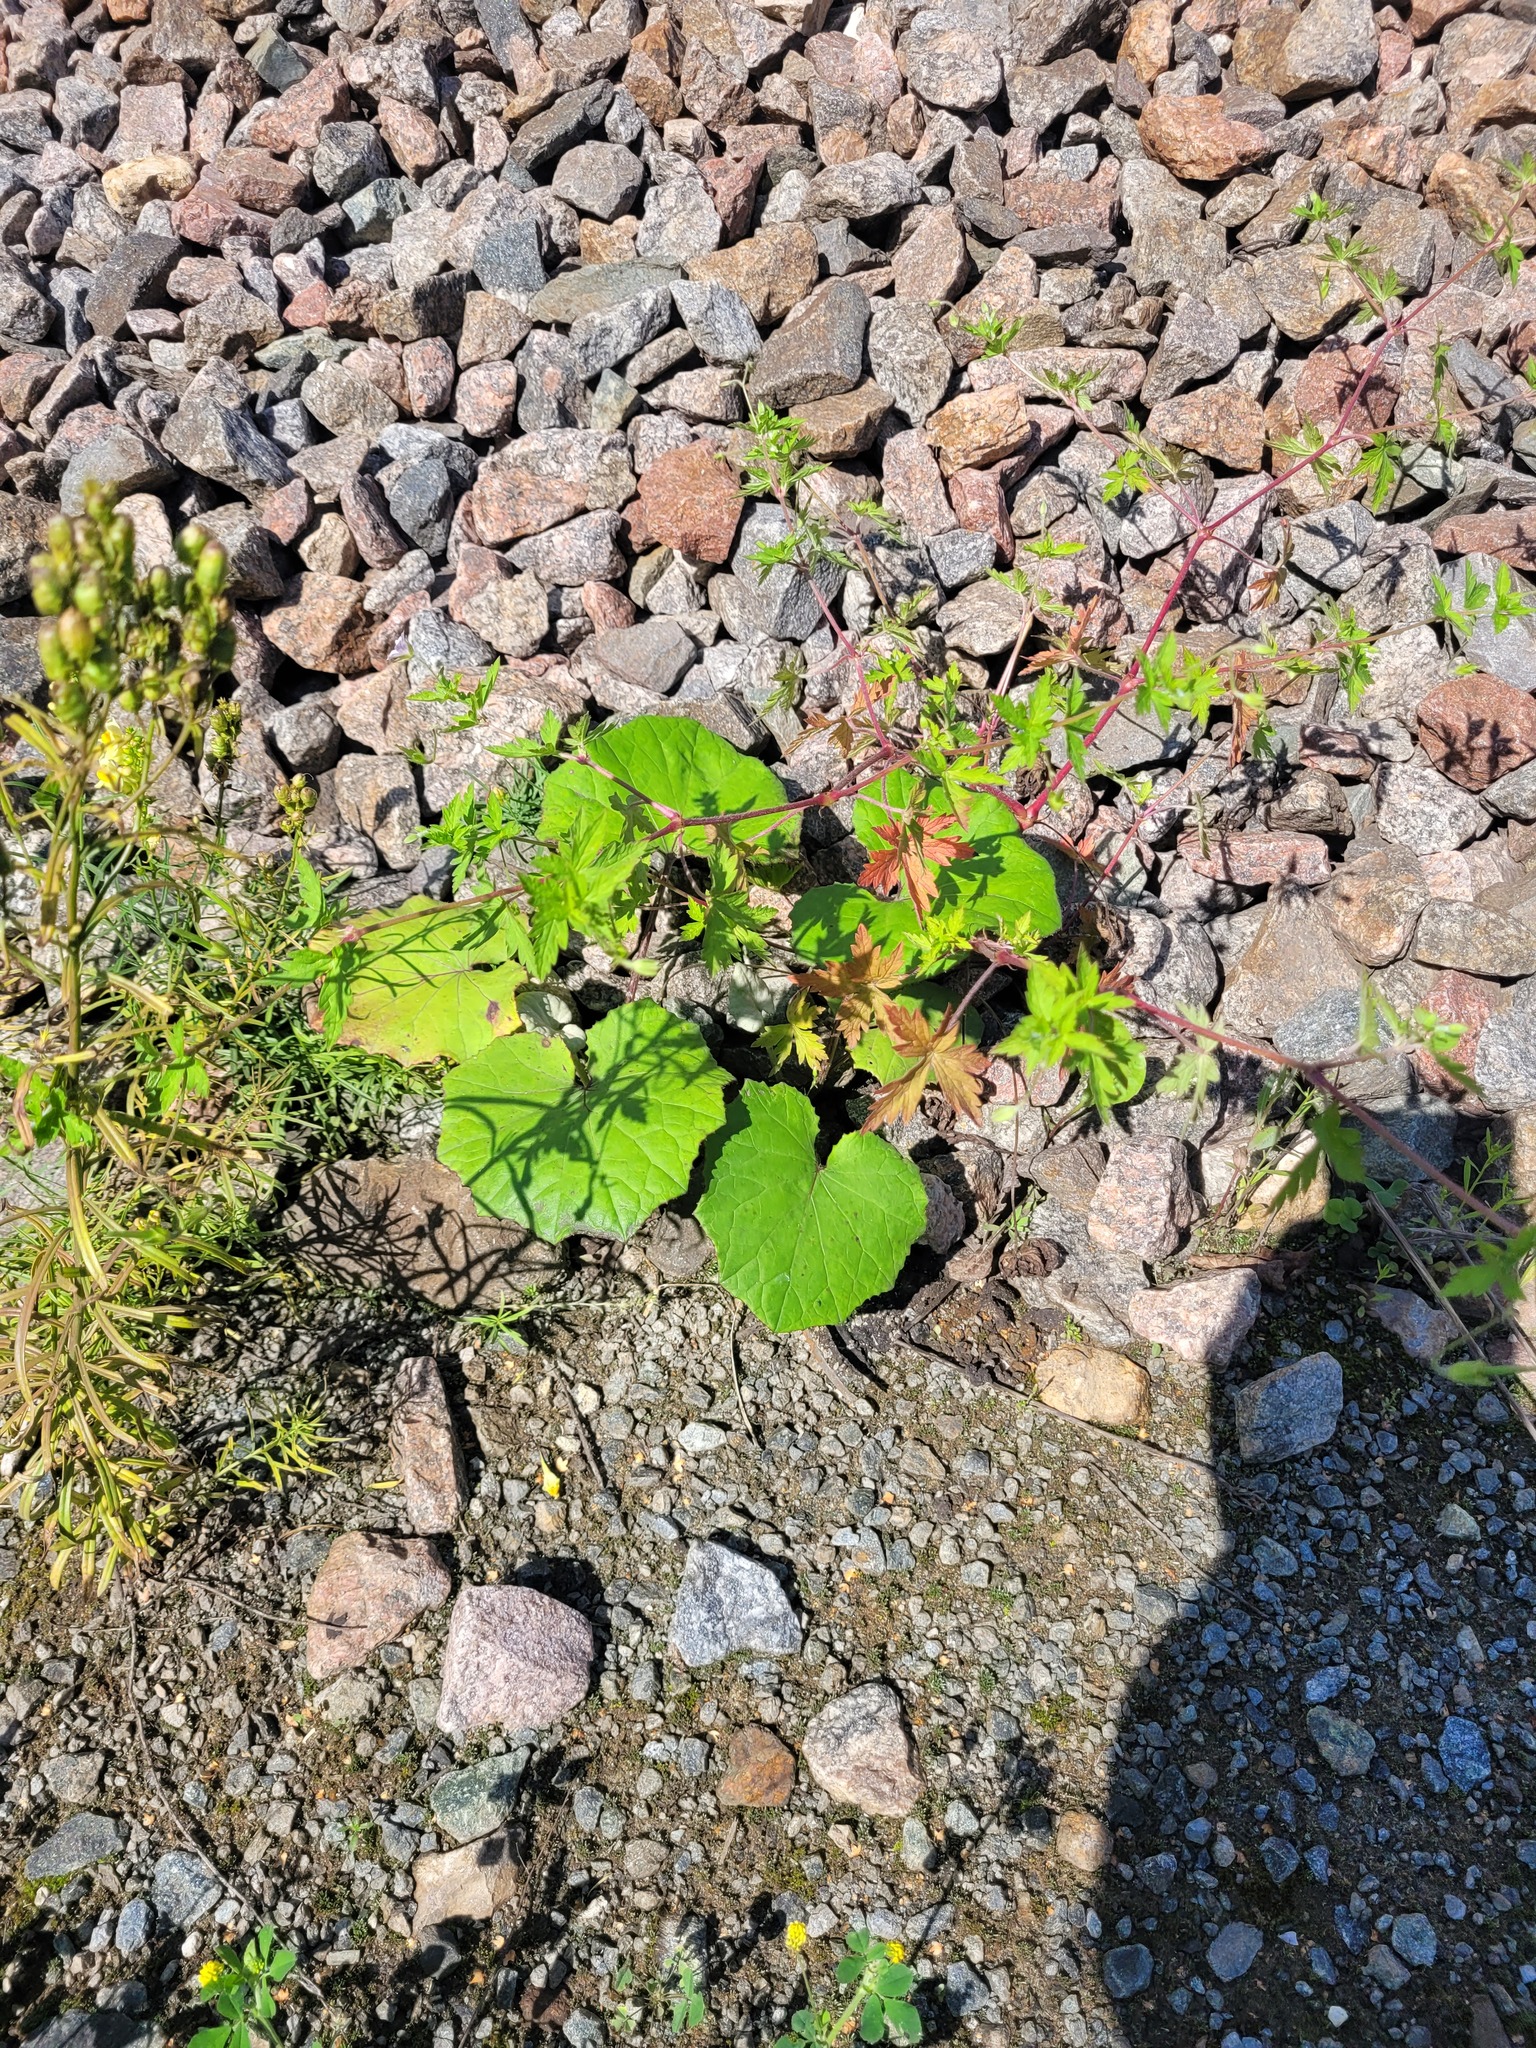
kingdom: Plantae
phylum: Tracheophyta
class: Magnoliopsida
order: Asterales
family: Asteraceae
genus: Tussilago
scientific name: Tussilago farfara
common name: Coltsfoot
